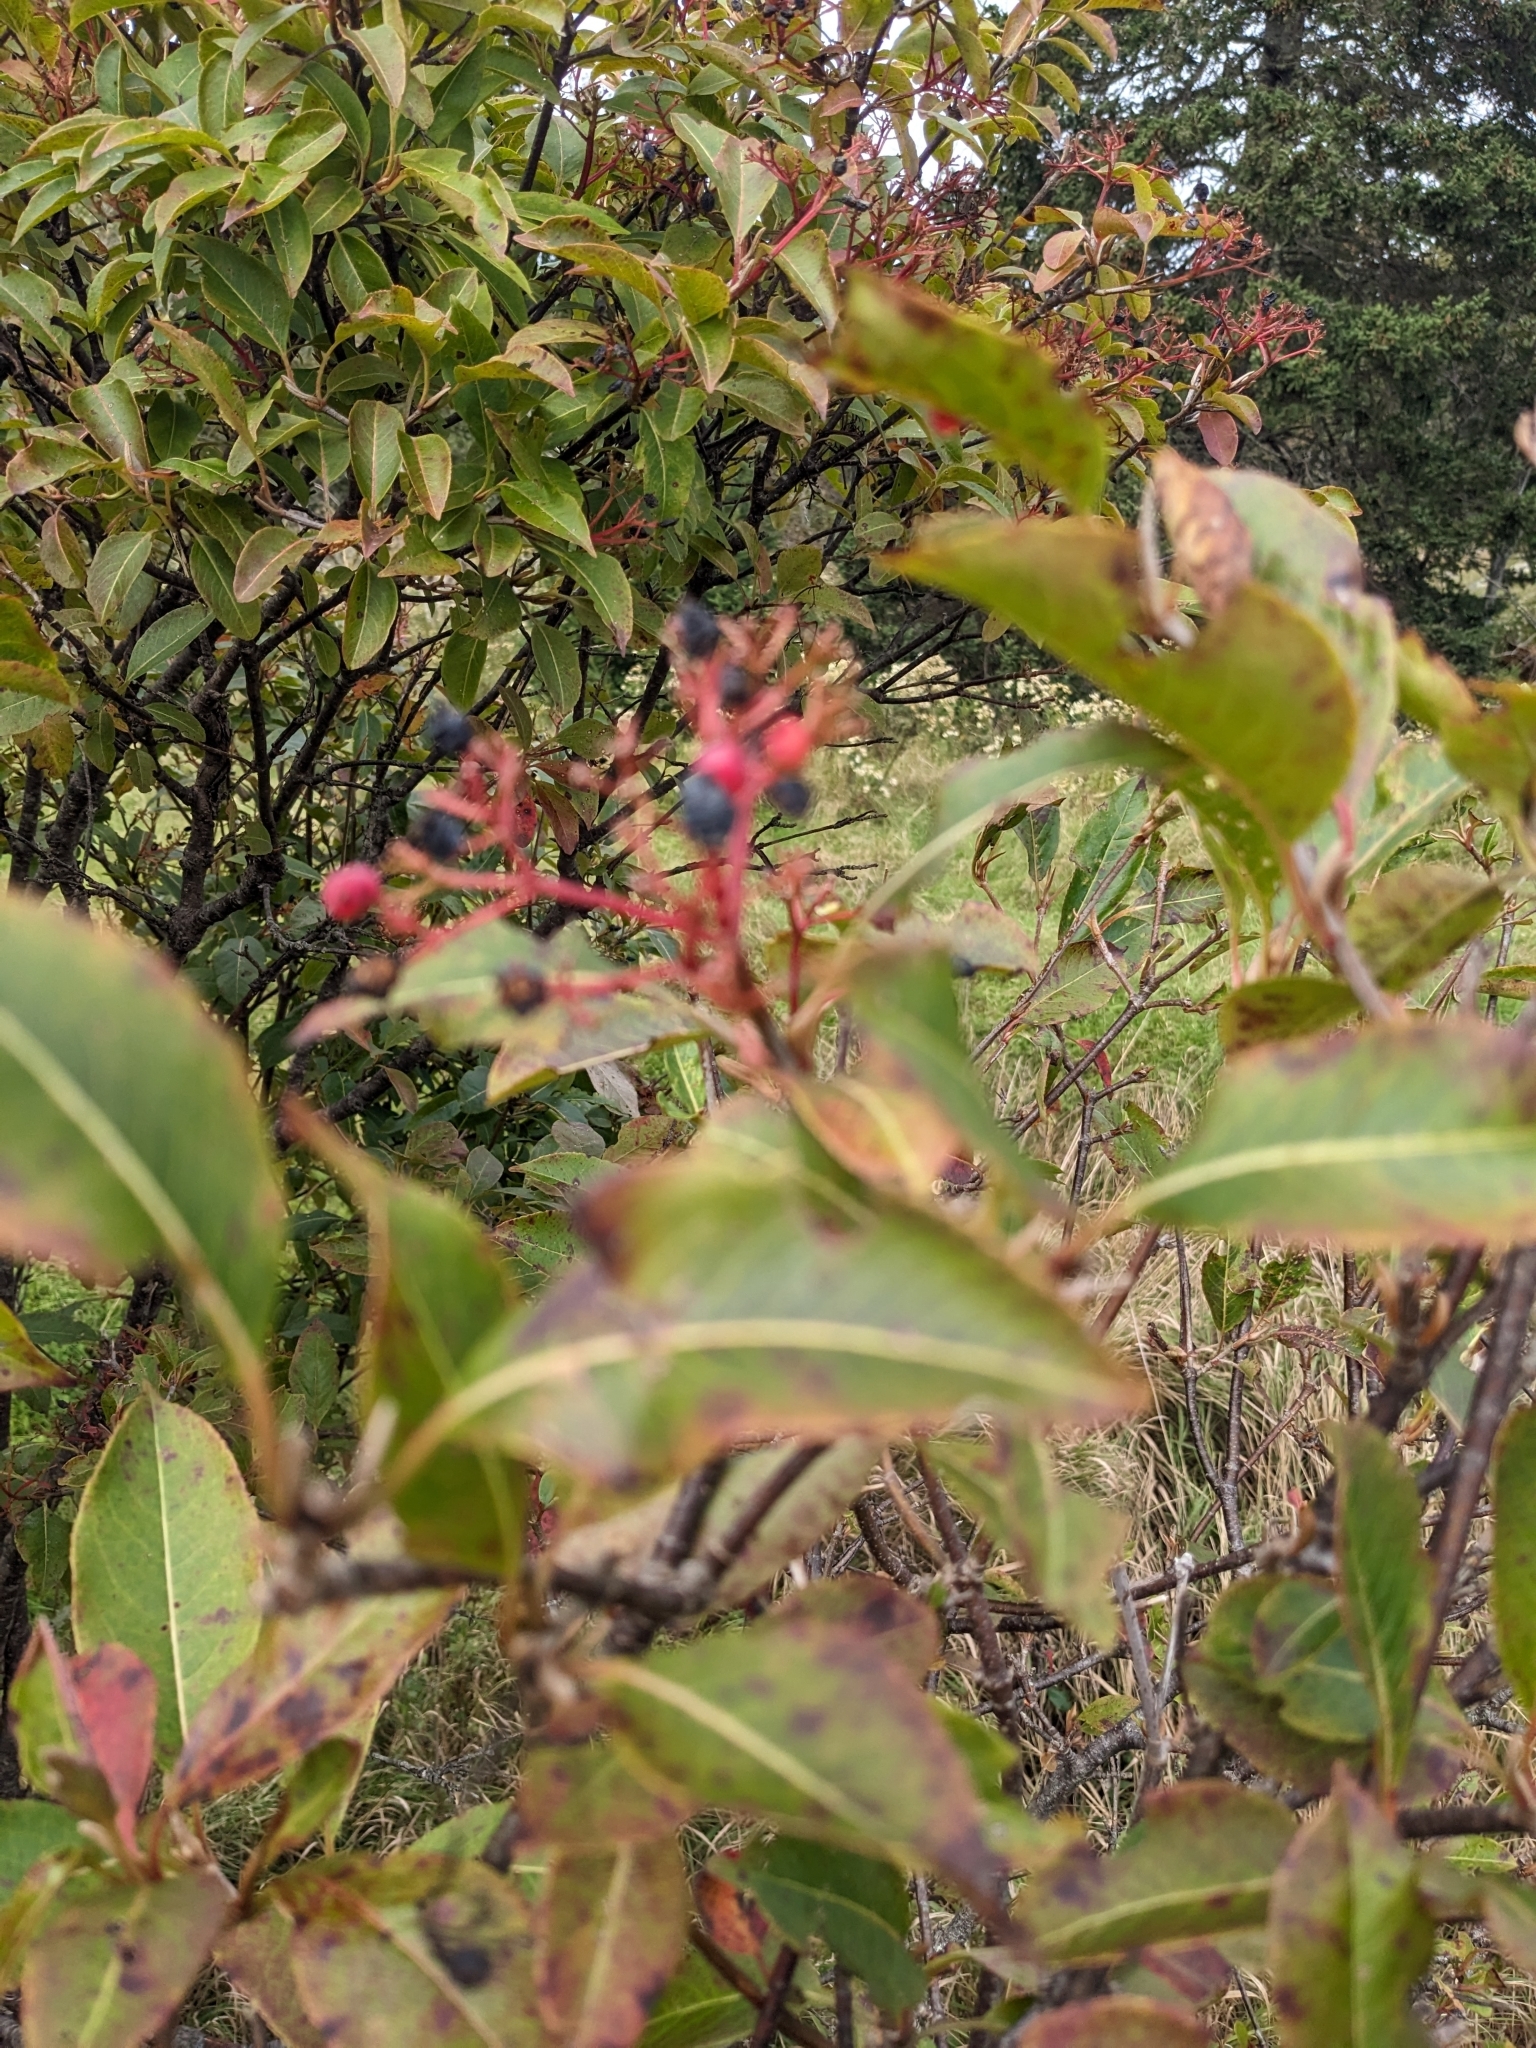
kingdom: Plantae
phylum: Tracheophyta
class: Magnoliopsida
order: Dipsacales
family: Viburnaceae
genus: Viburnum
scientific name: Viburnum cassinoides
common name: Swamp haw
